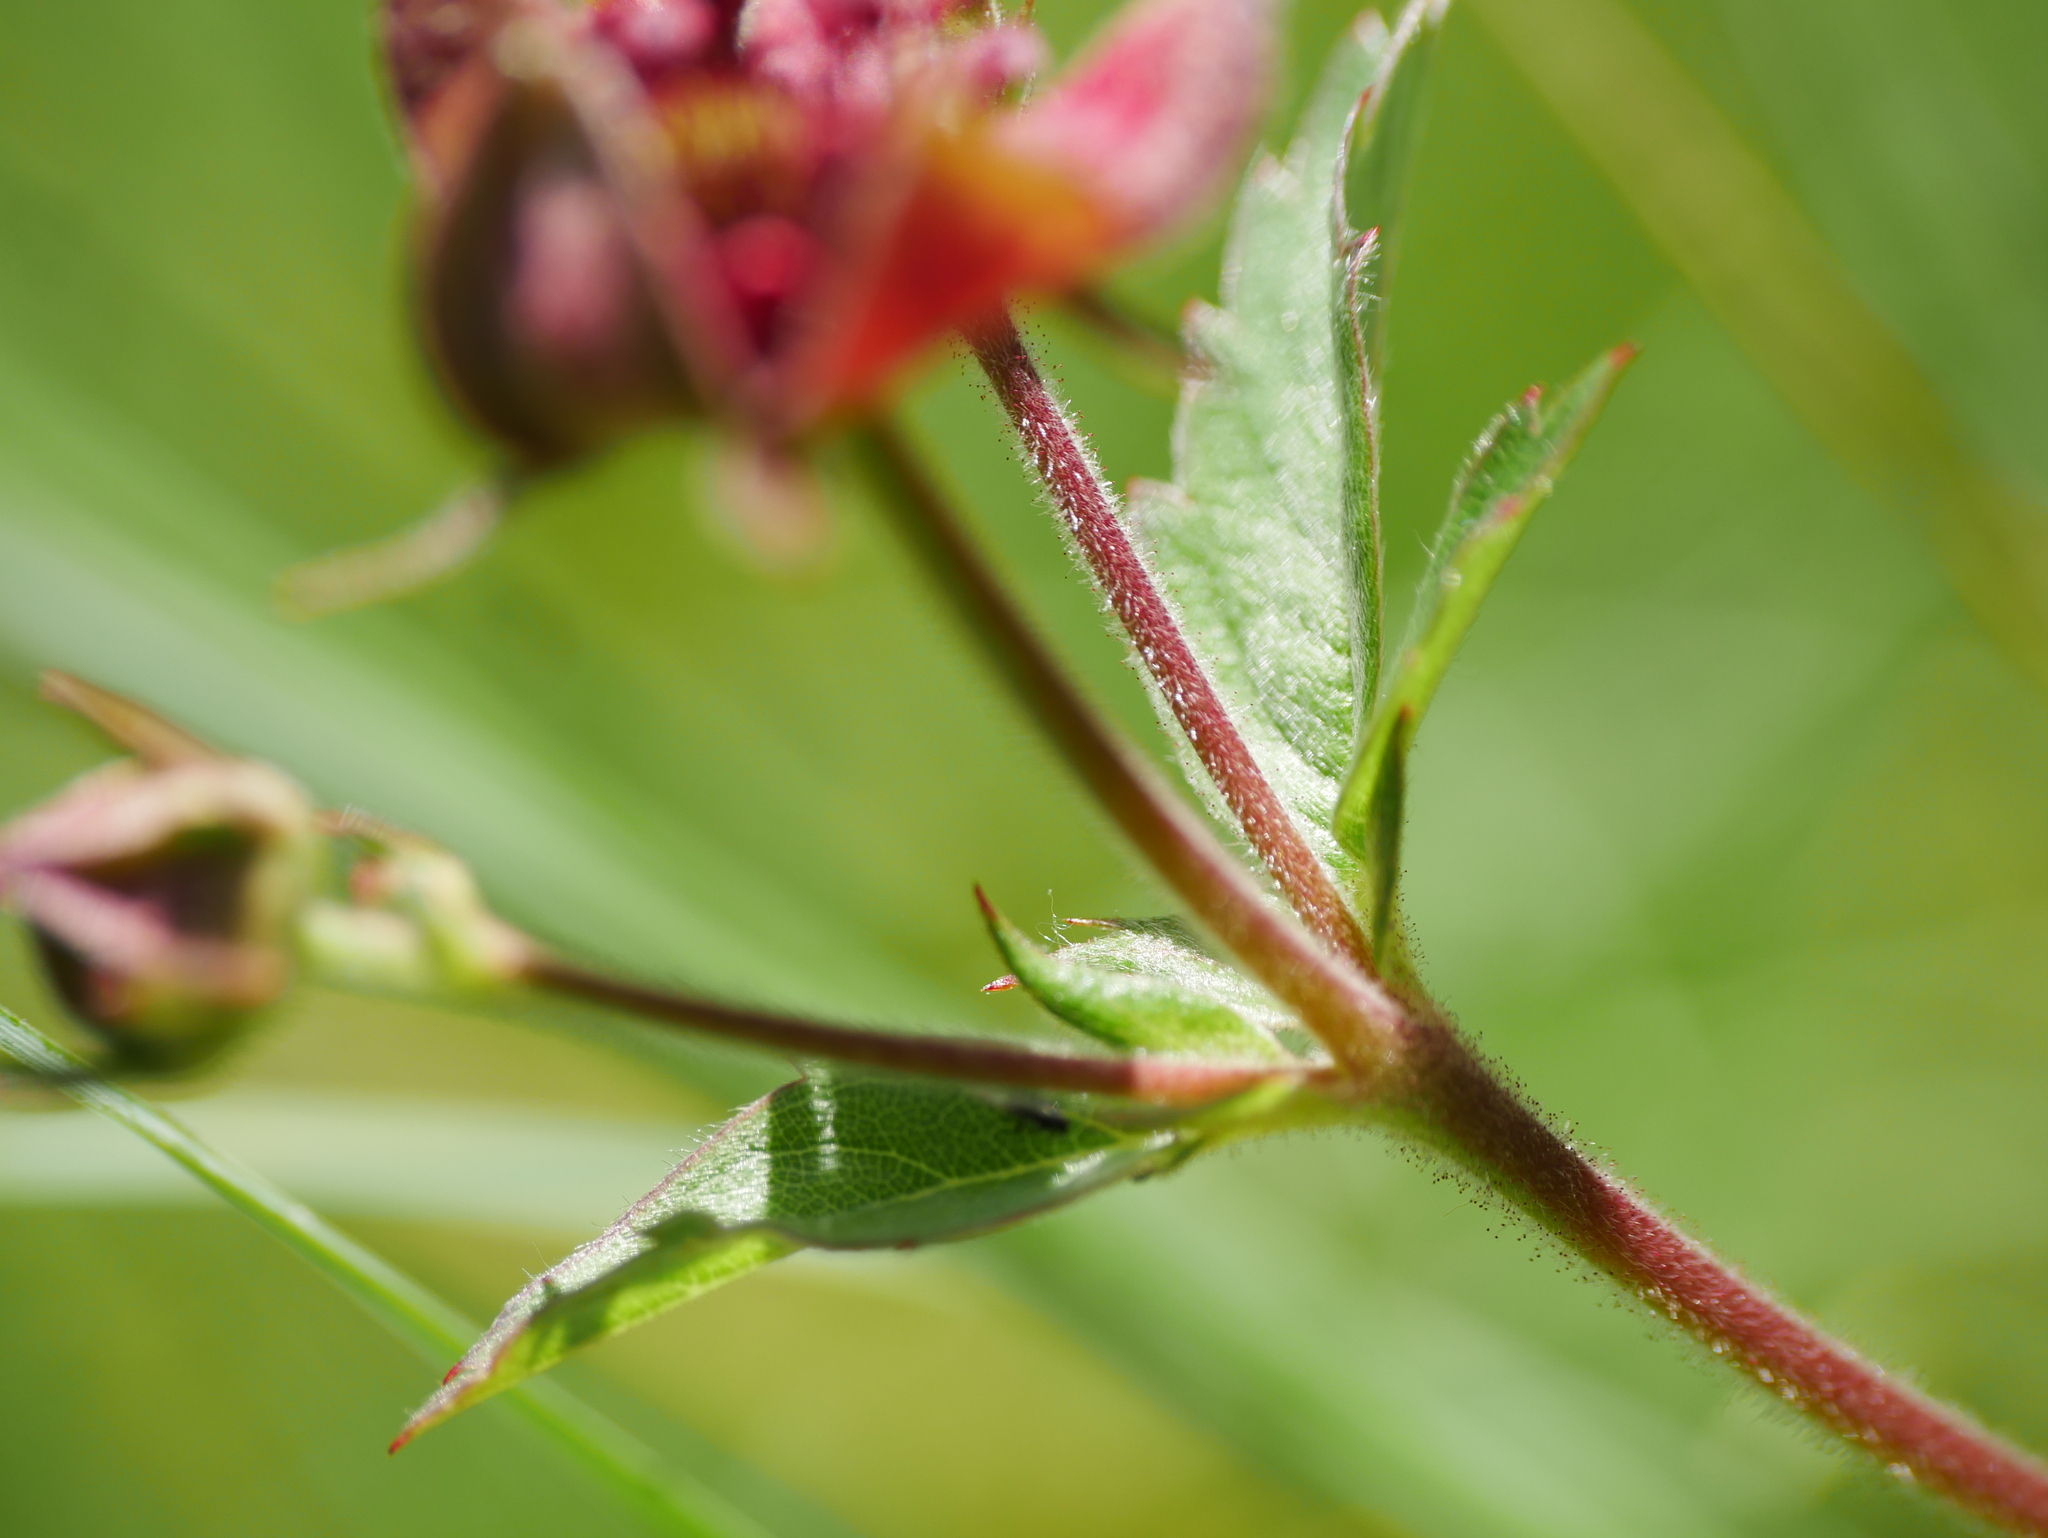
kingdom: Plantae
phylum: Tracheophyta
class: Magnoliopsida
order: Rosales
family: Rosaceae
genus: Comarum
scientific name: Comarum palustre
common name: Marsh cinquefoil
